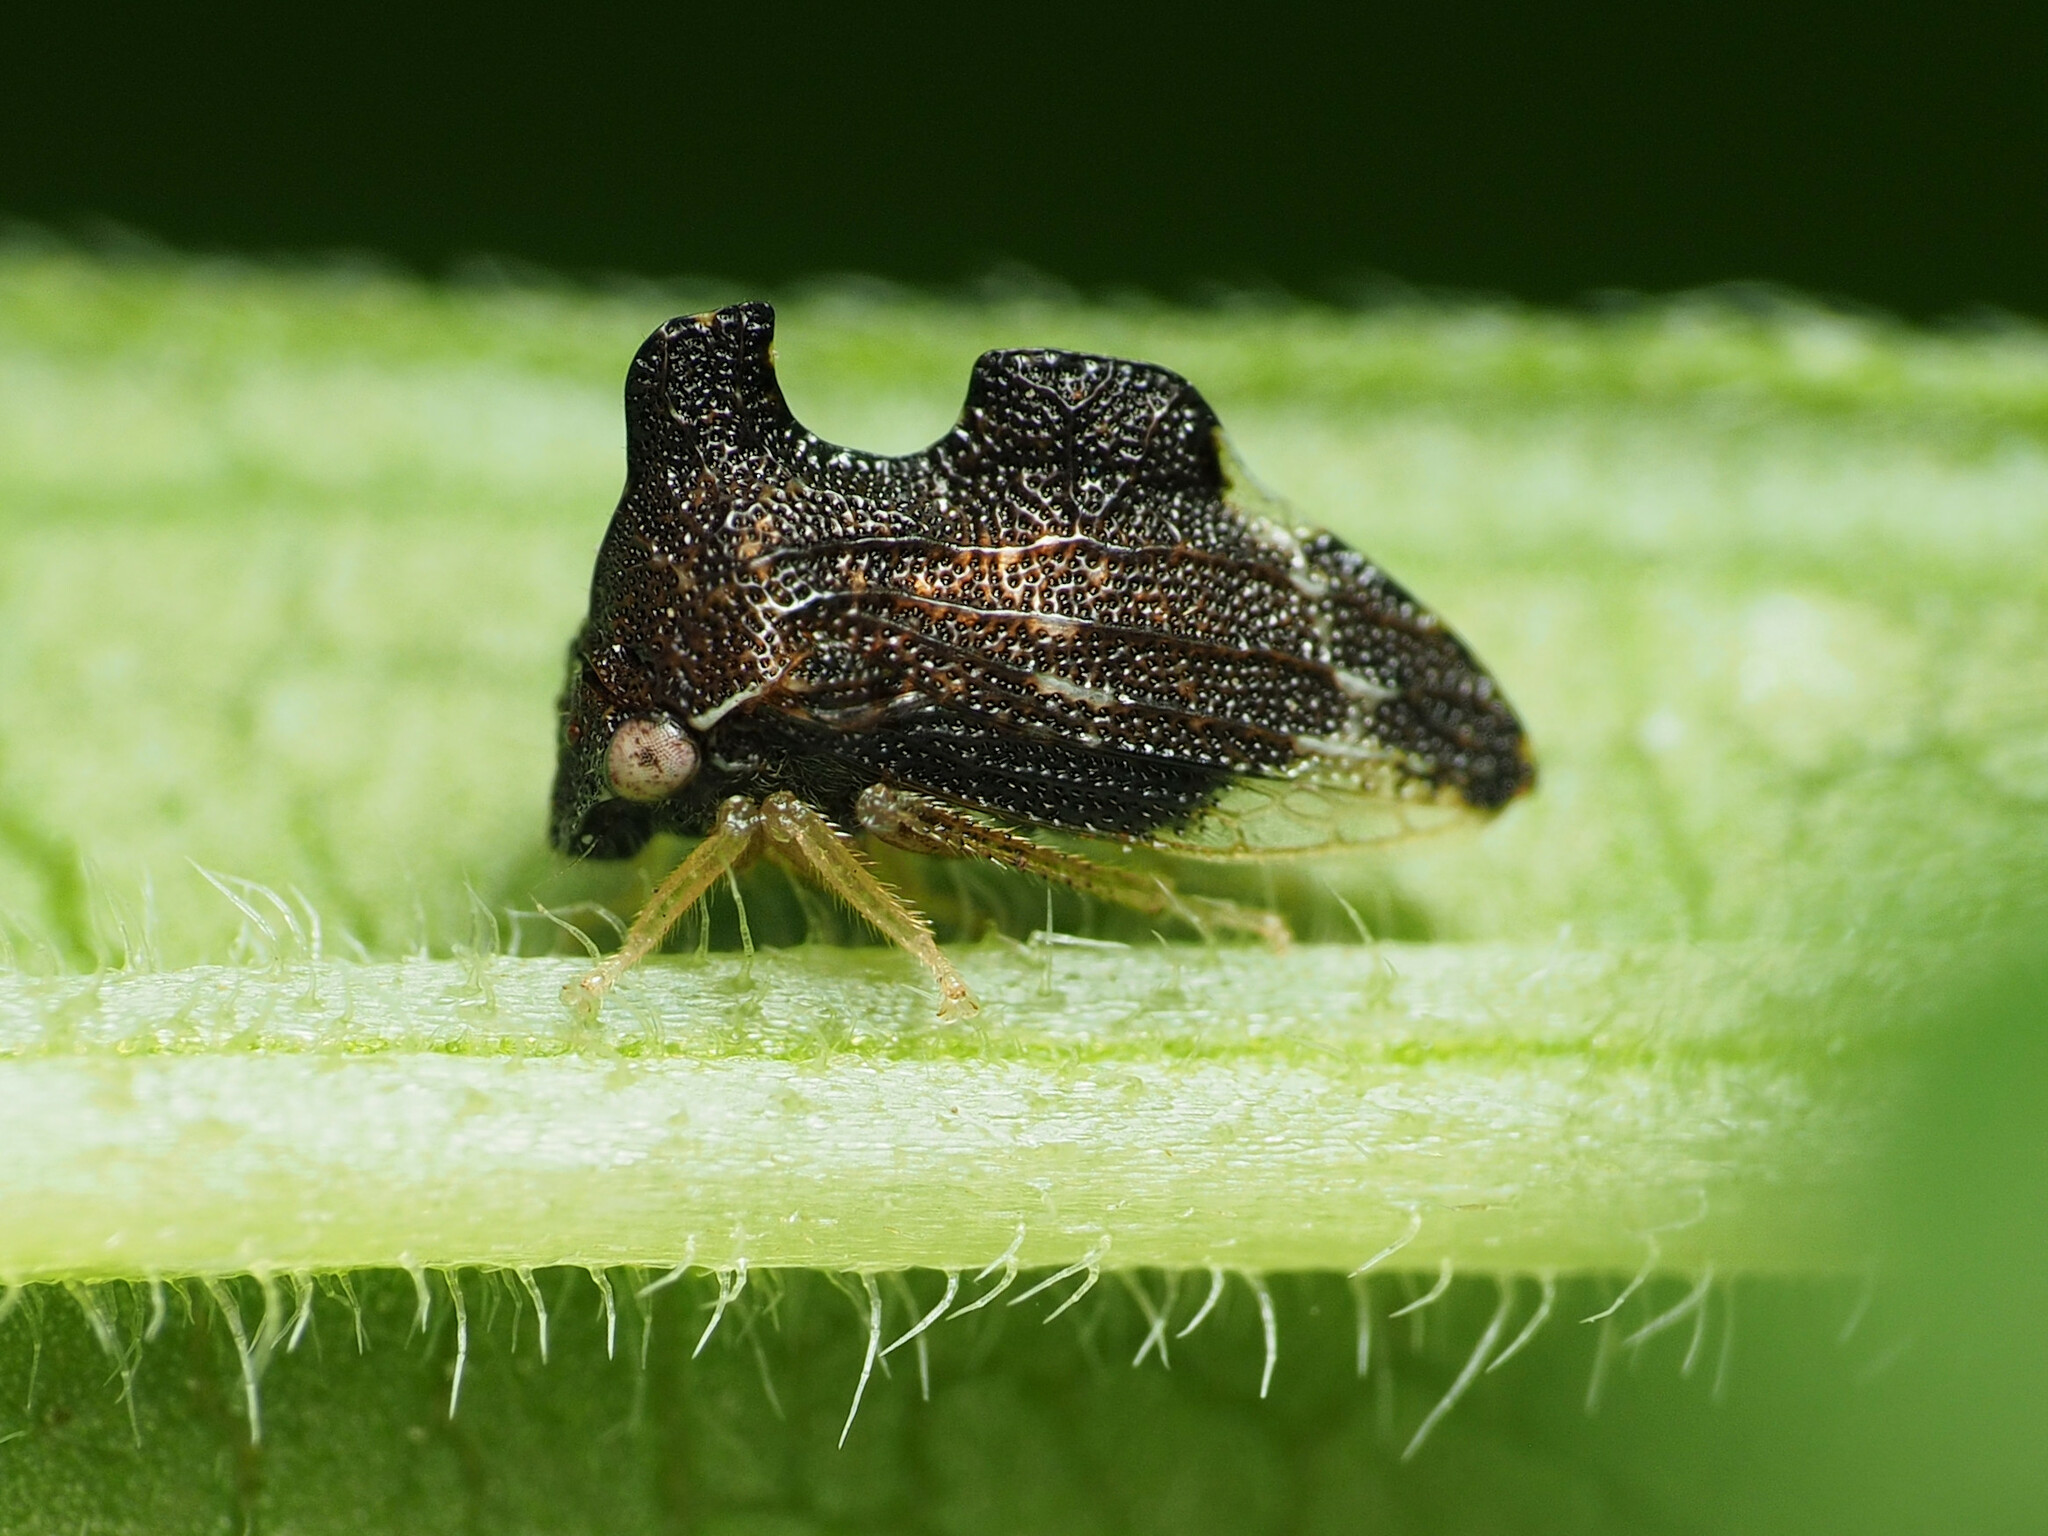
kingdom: Animalia
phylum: Arthropoda
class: Insecta
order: Hemiptera
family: Membracidae
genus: Entylia
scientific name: Entylia carinata
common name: Keeled treehopper
